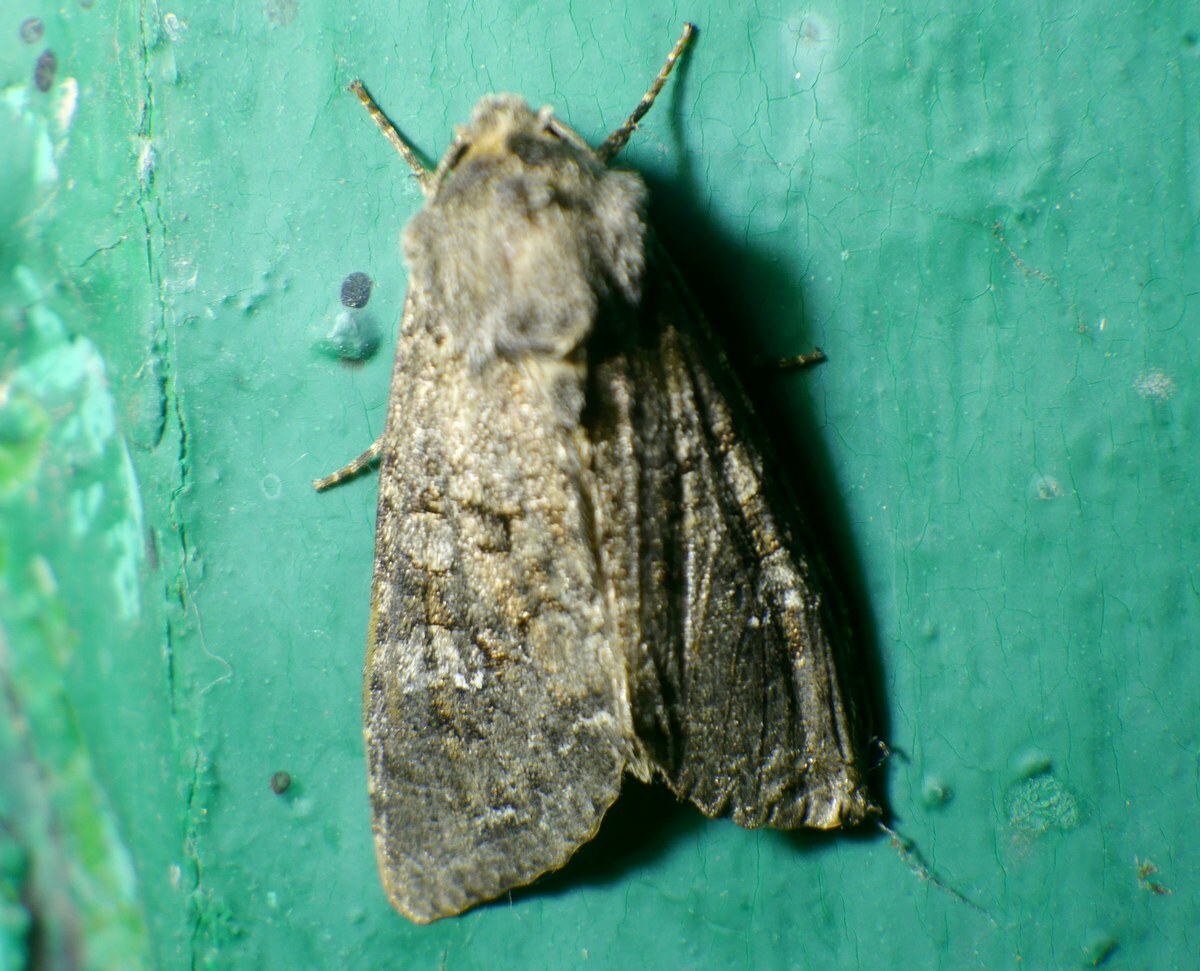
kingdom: Animalia
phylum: Arthropoda
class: Insecta
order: Lepidoptera
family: Noctuidae
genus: Mamestra
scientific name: Mamestra brassicae
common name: Cabbage moth
